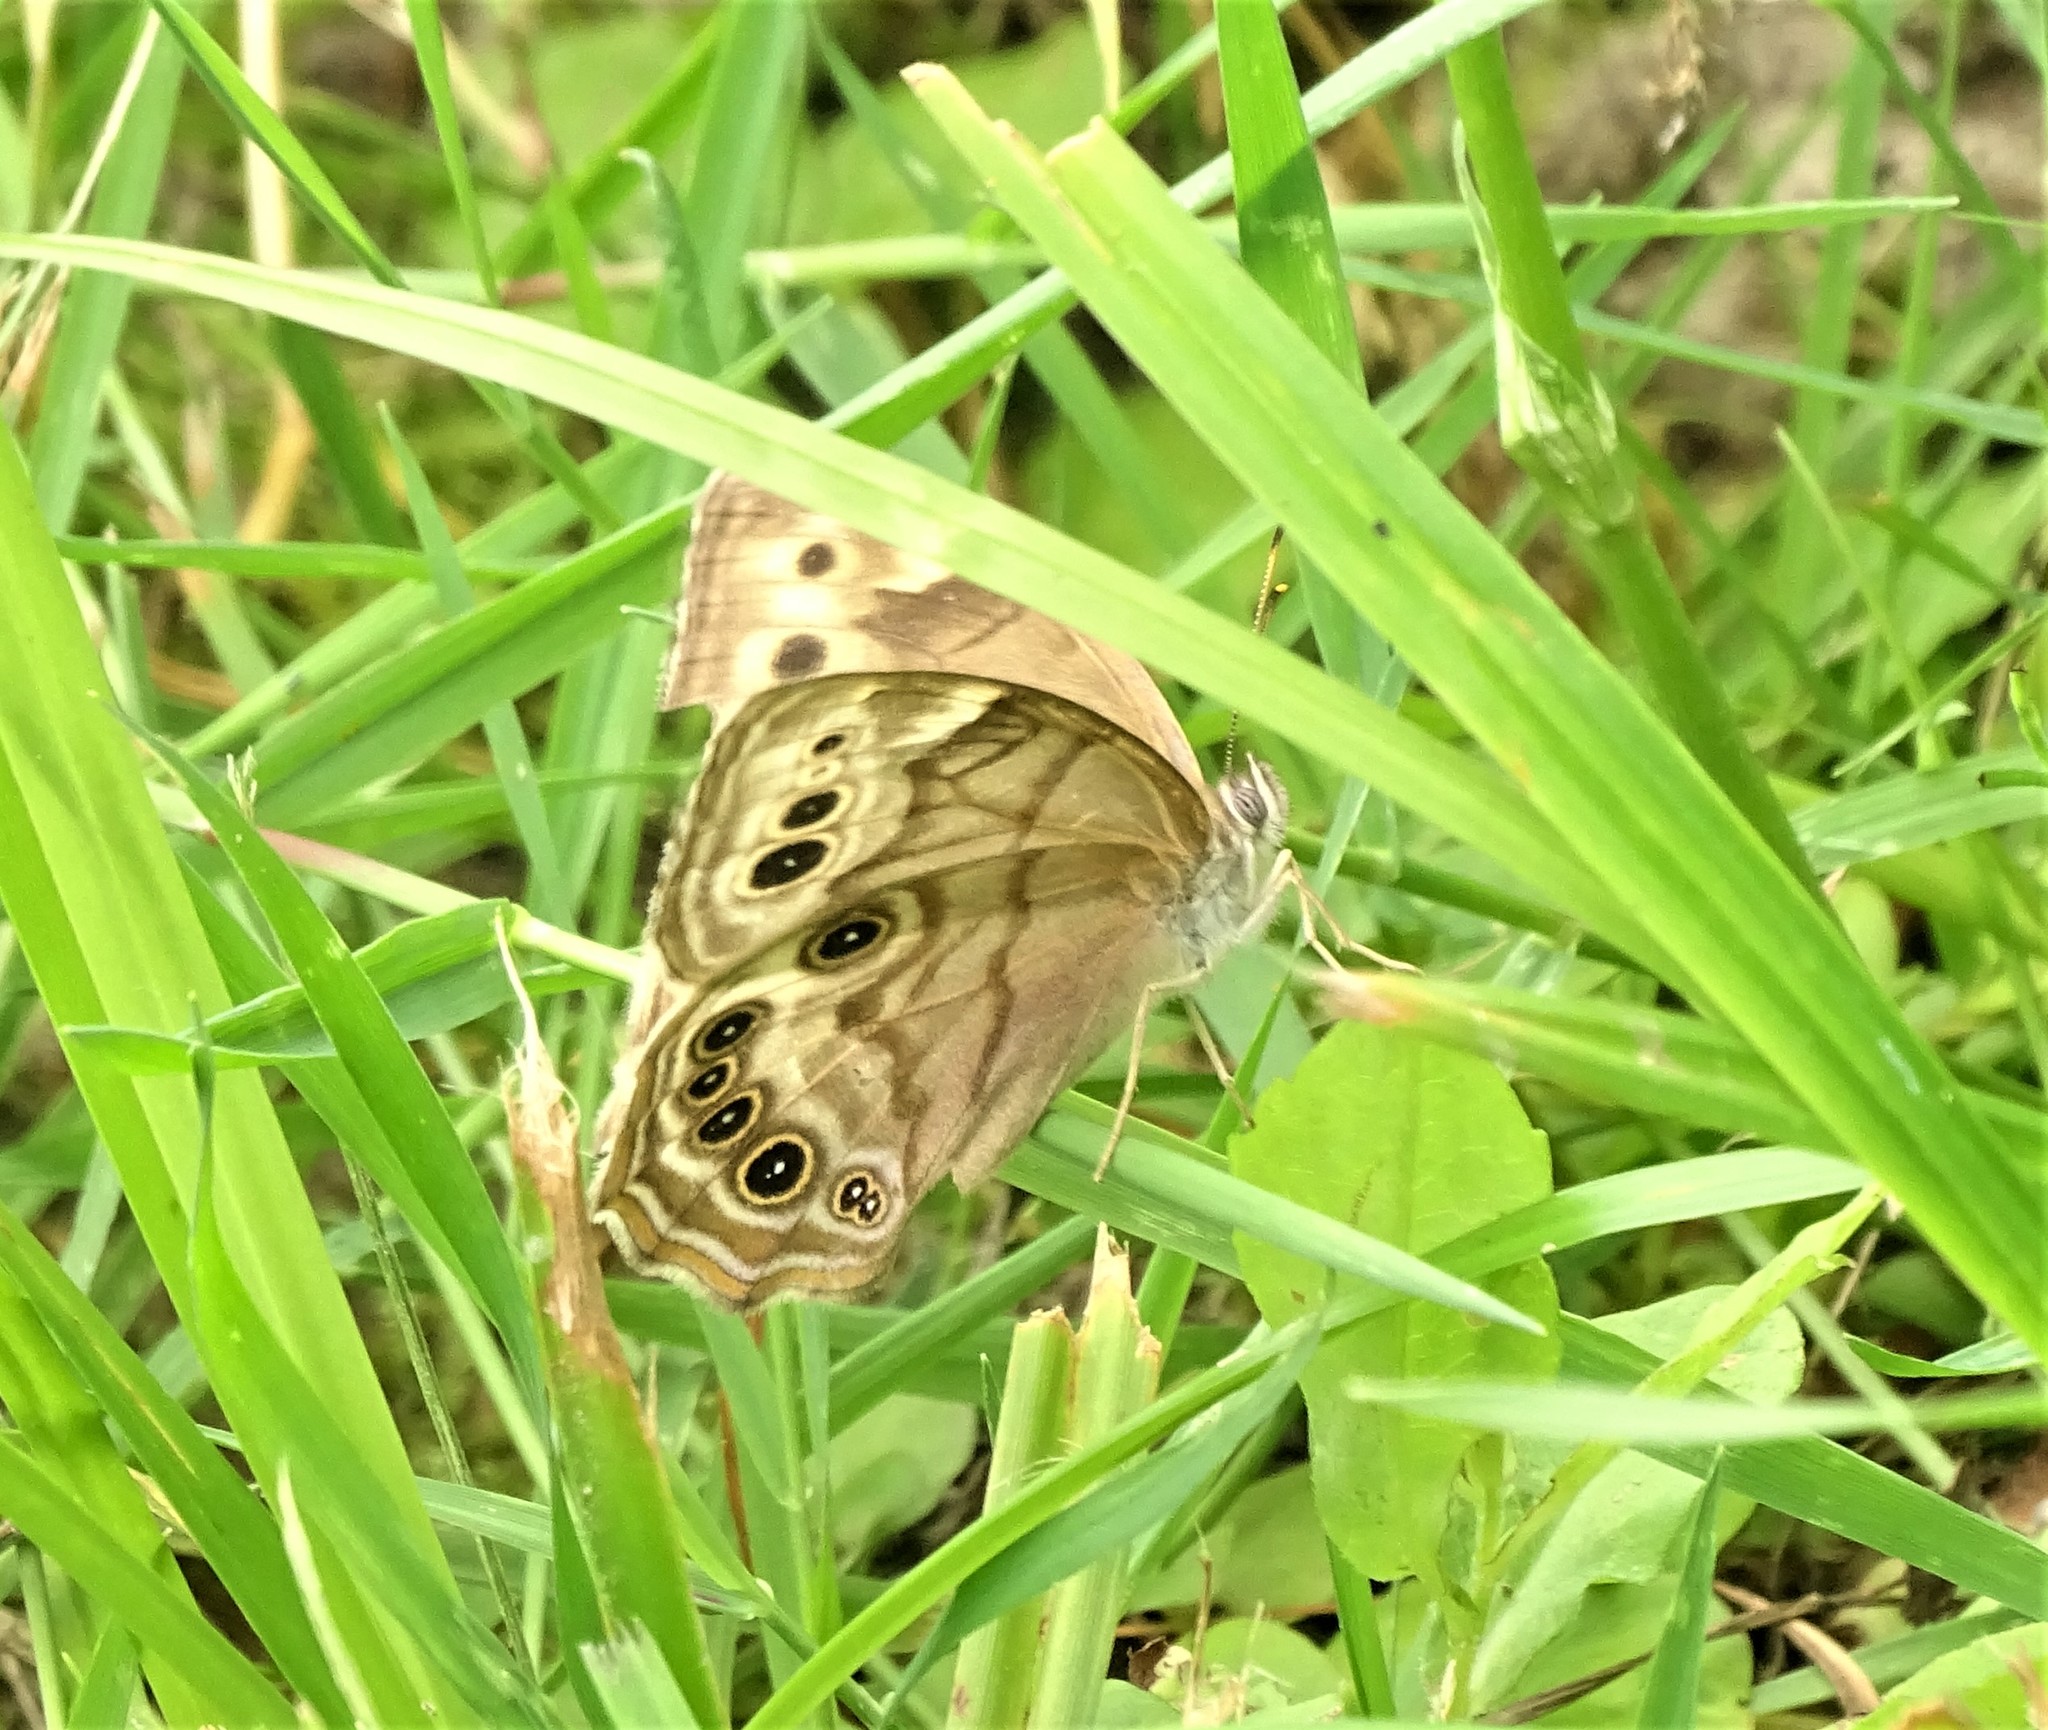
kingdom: Animalia
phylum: Arthropoda
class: Insecta
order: Lepidoptera
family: Nymphalidae
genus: Lethe
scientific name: Lethe anthedon
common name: Northern pearly-eye
